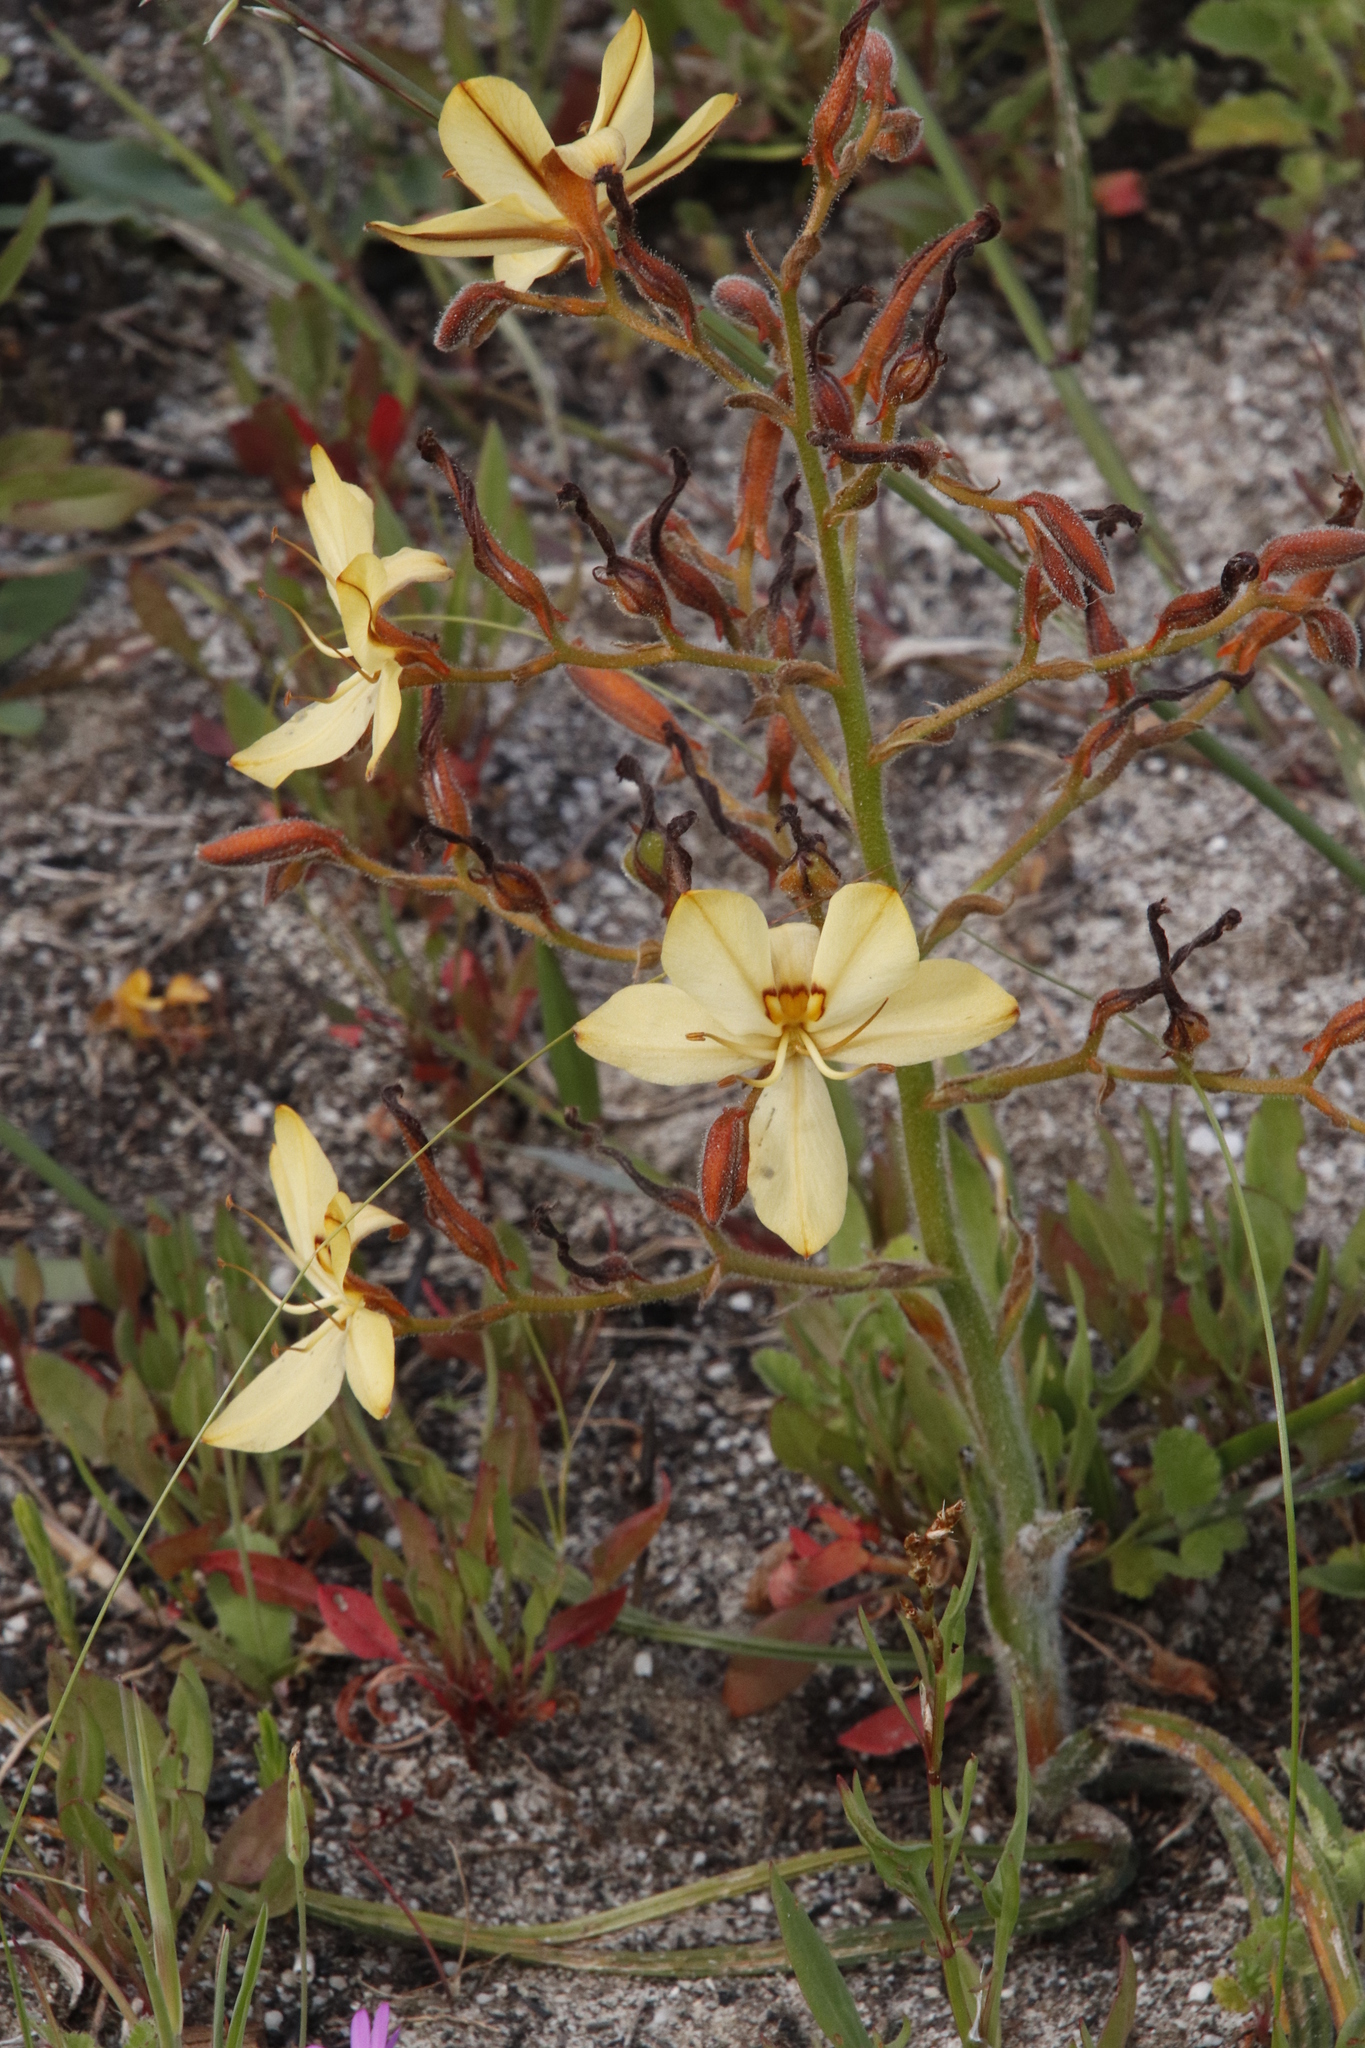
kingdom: Plantae
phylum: Tracheophyta
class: Liliopsida
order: Commelinales
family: Haemodoraceae
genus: Wachendorfia
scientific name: Wachendorfia paniculata
